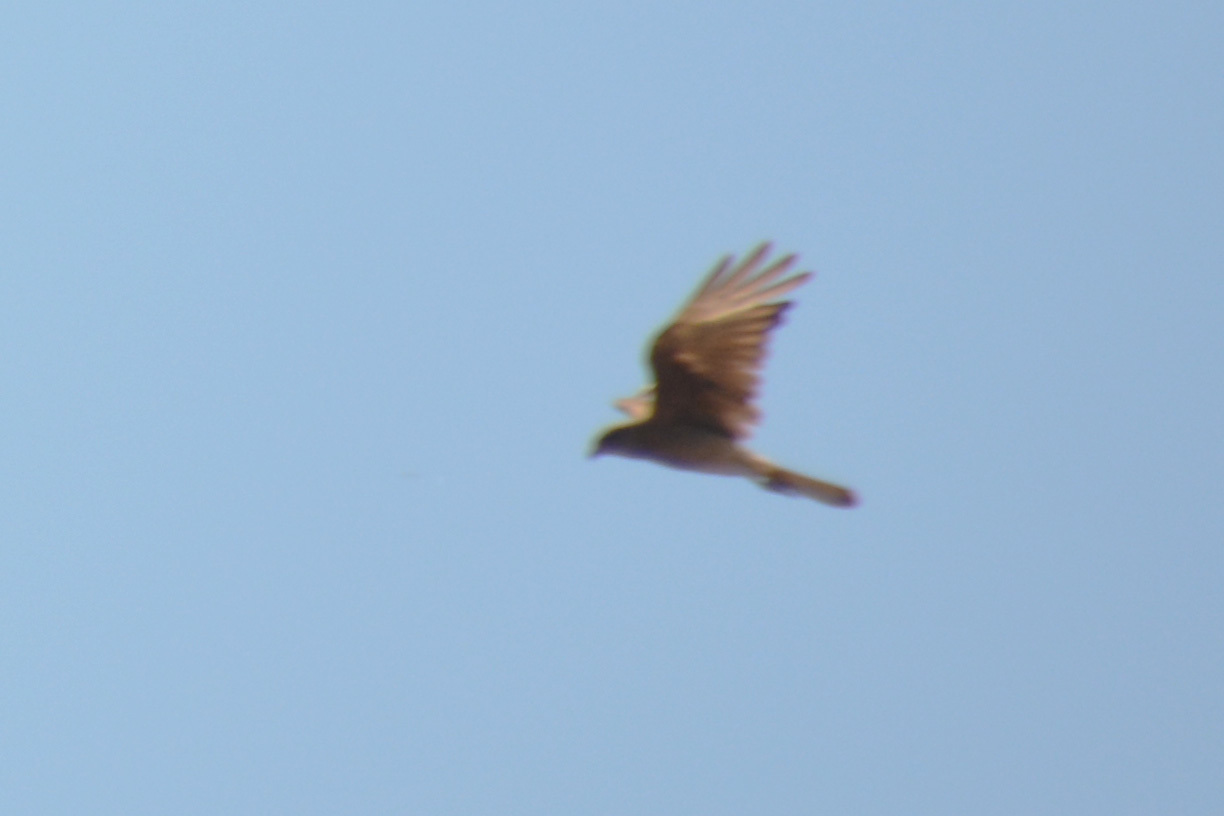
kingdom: Animalia
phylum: Chordata
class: Aves
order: Falconiformes
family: Falconidae
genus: Daptrius
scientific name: Daptrius
